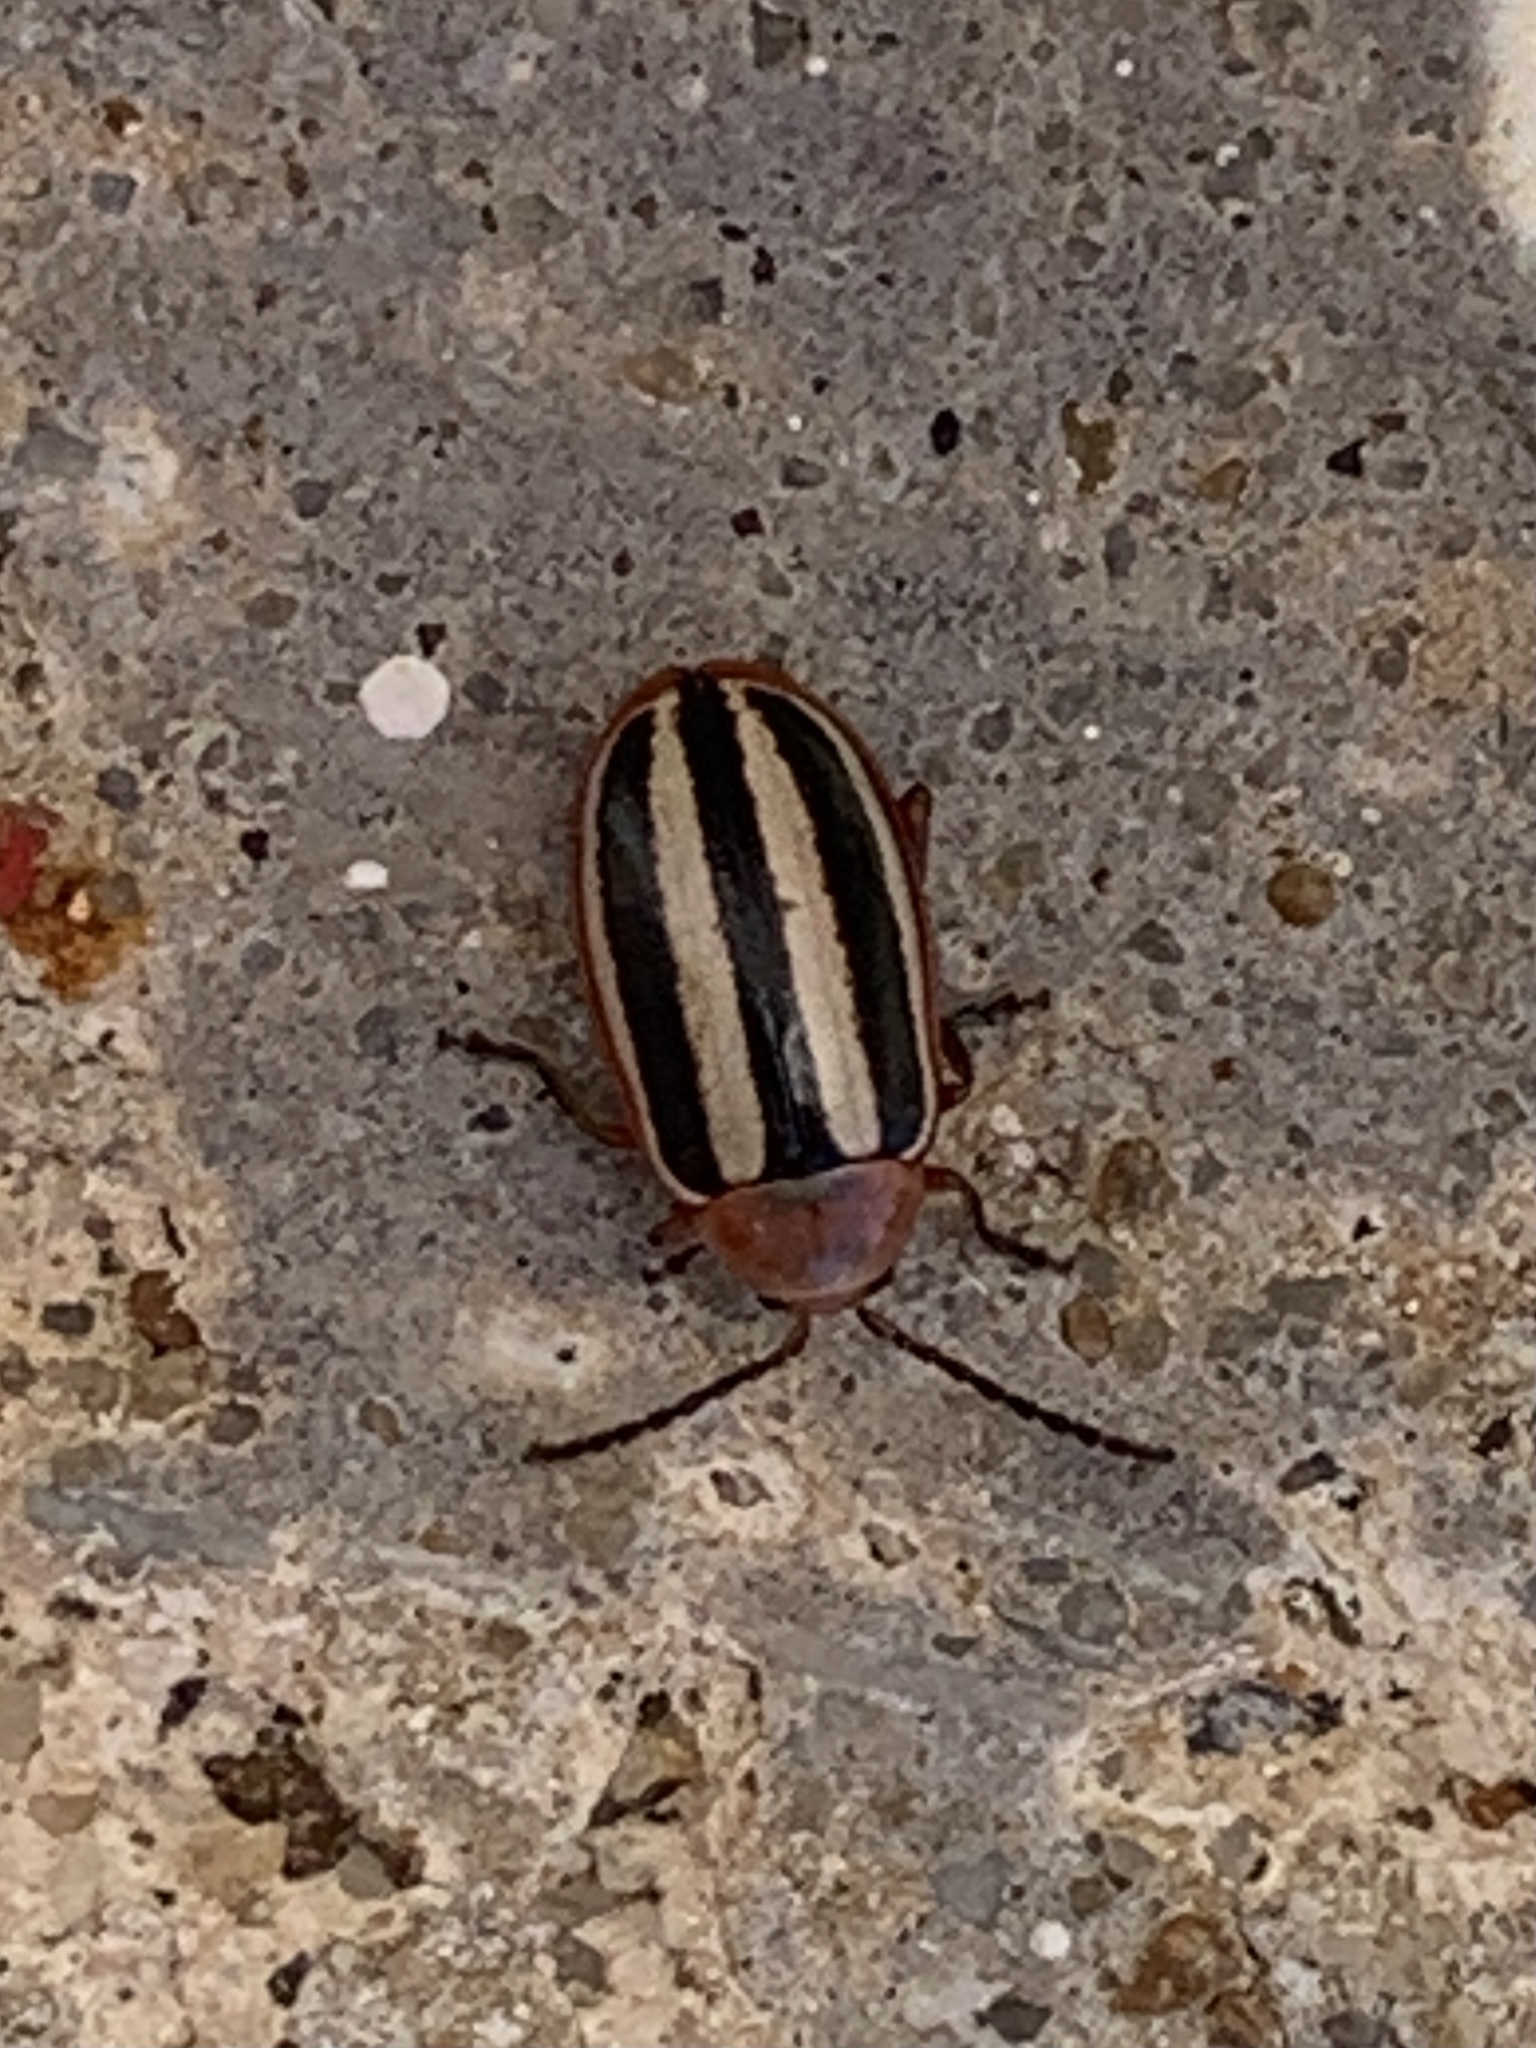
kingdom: Animalia
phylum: Arthropoda
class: Insecta
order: Coleoptera
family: Chrysomelidae
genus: Disonycha
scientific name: Disonycha leptolineata
